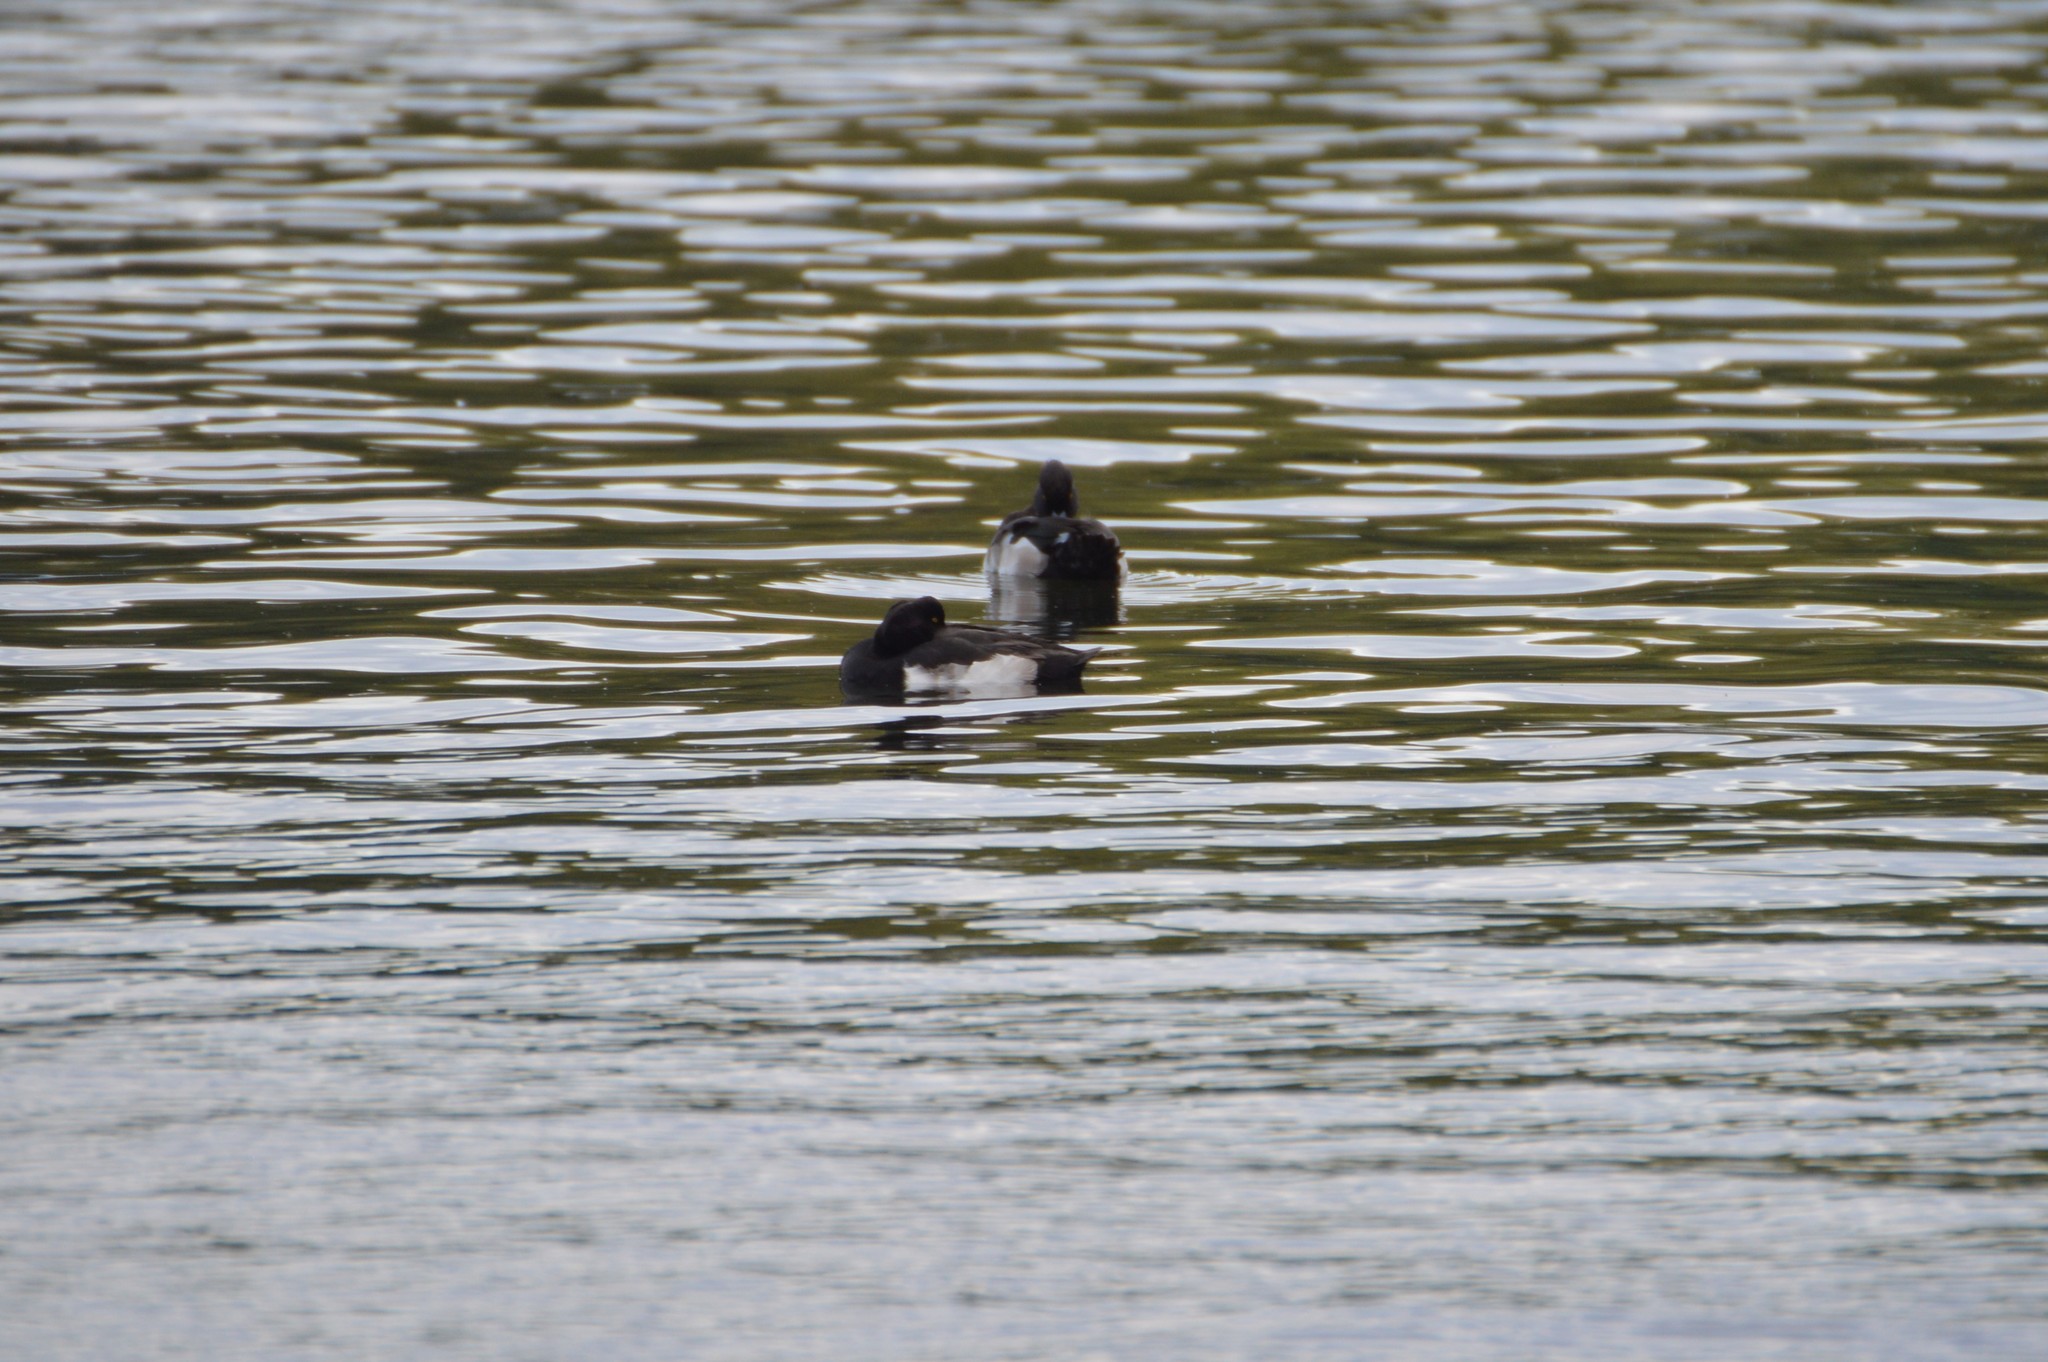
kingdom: Animalia
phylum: Chordata
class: Aves
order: Anseriformes
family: Anatidae
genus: Aythya
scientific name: Aythya fuligula
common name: Tufted duck
